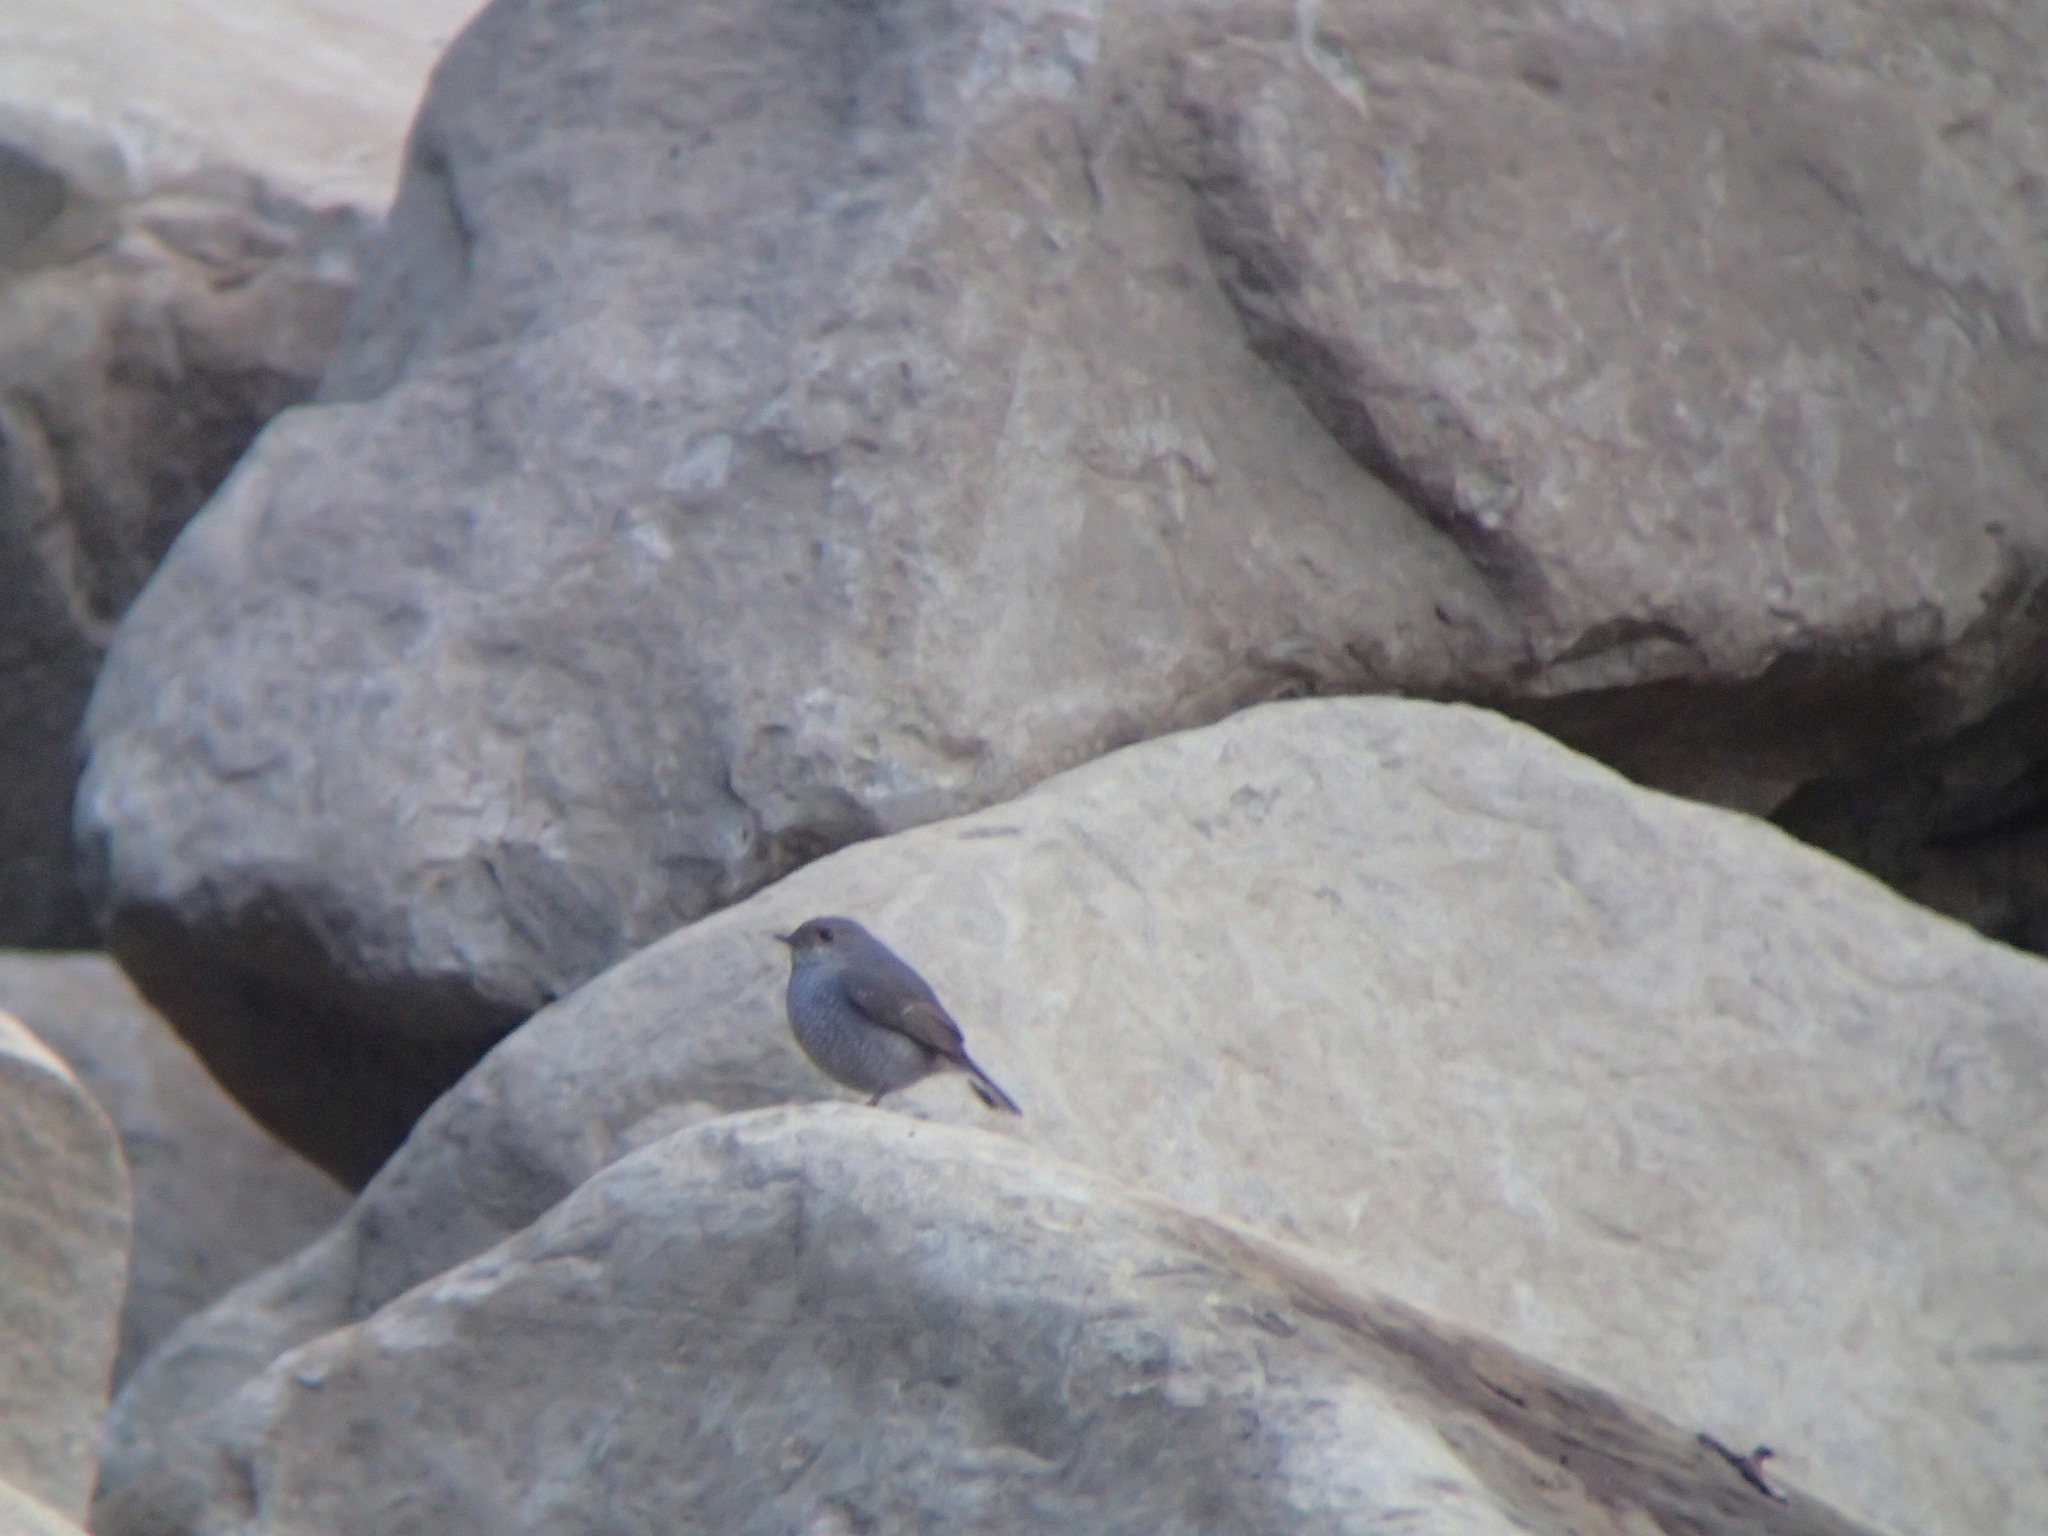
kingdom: Animalia
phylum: Chordata
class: Aves
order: Passeriformes
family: Muscicapidae
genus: Phoenicurus
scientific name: Phoenicurus fuliginosus
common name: Plumbeous water redstart
